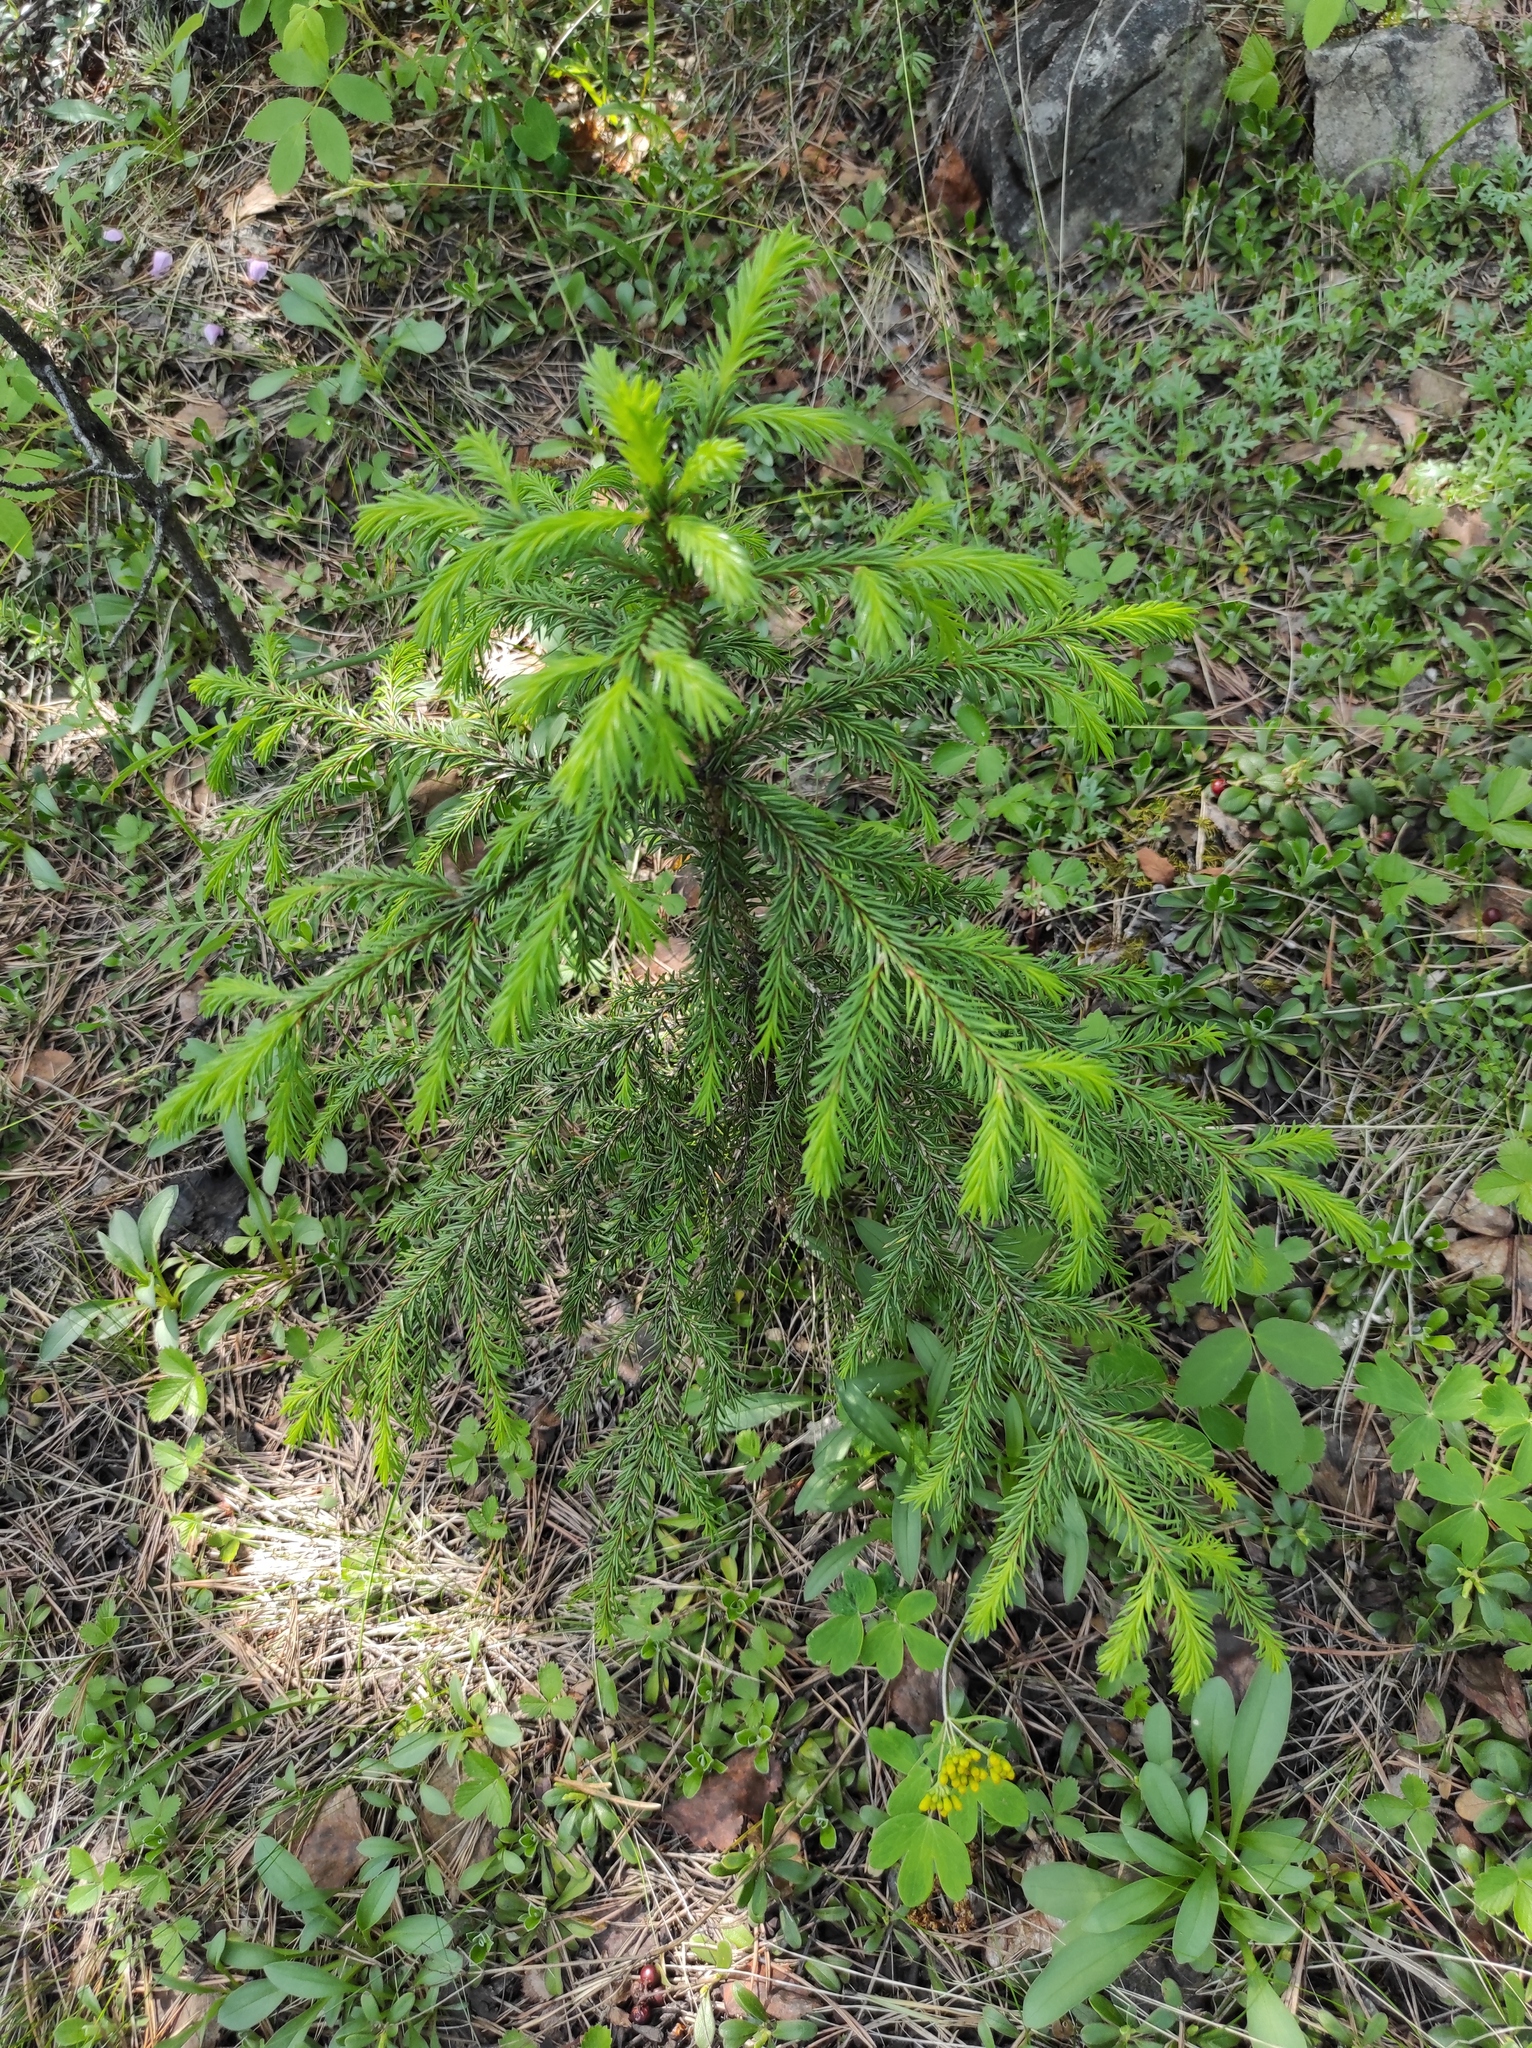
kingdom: Plantae
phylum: Tracheophyta
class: Pinopsida
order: Pinales
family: Pinaceae
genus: Picea
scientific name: Picea obovata
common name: Siberian spruce
